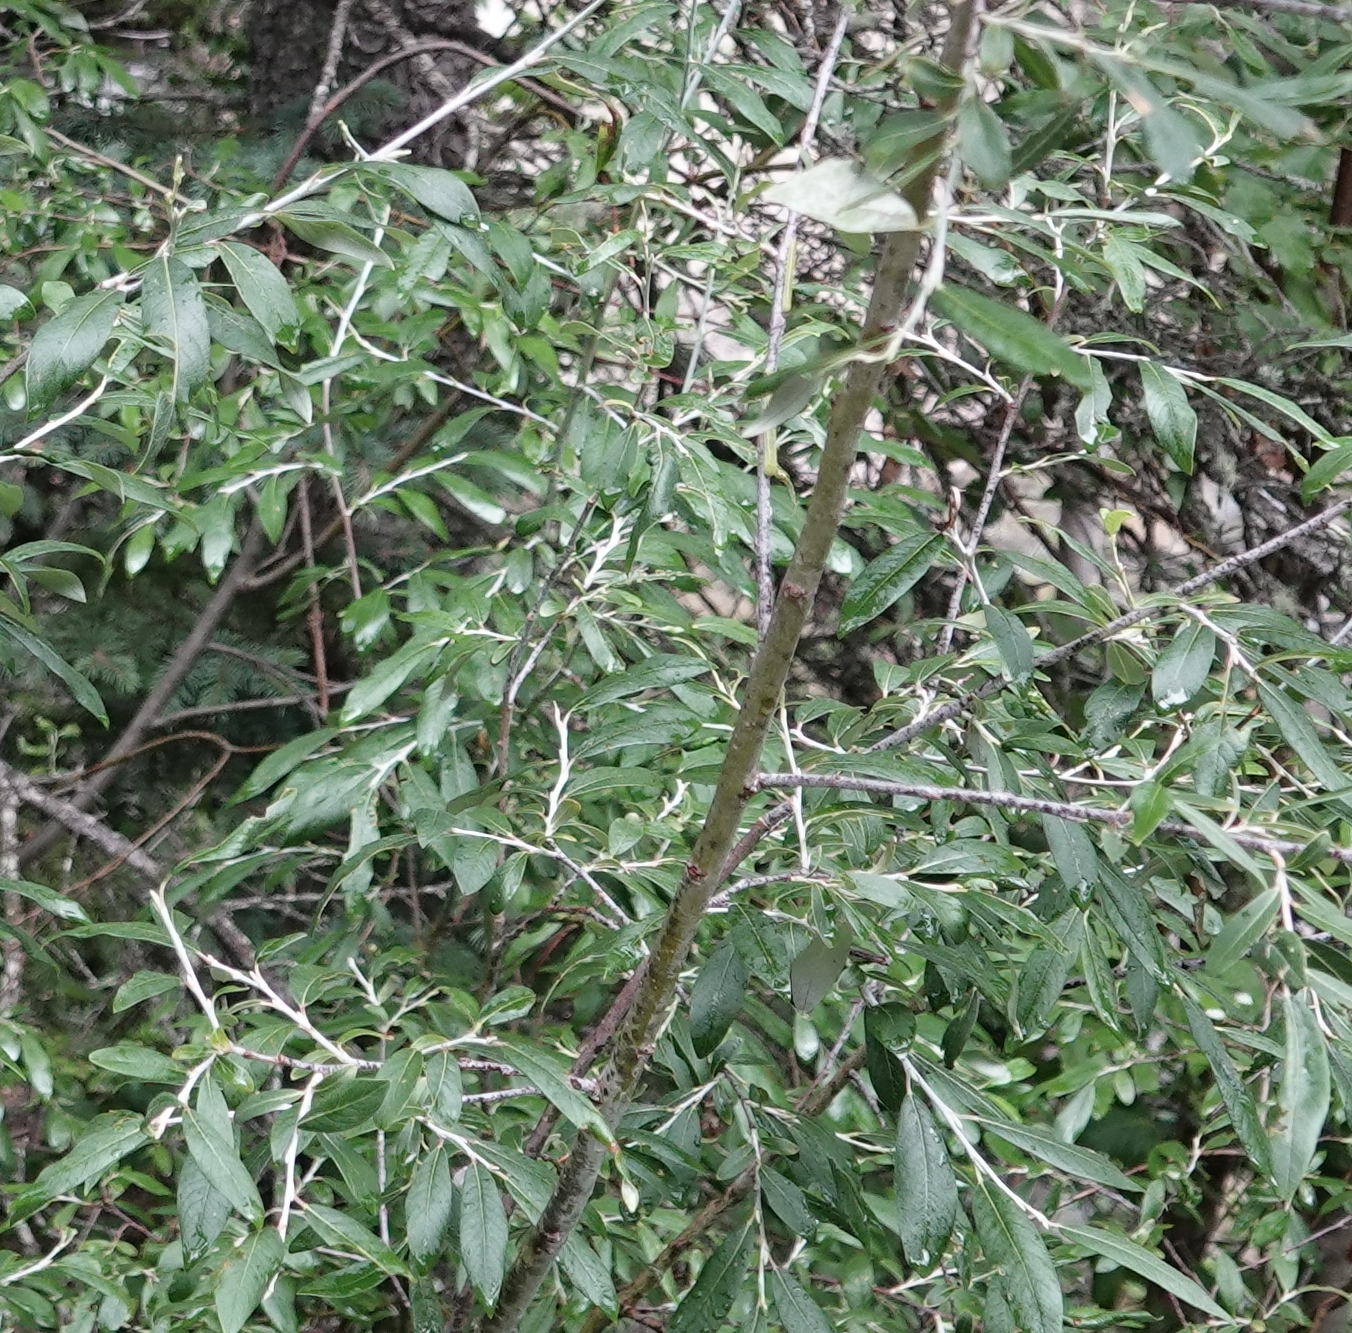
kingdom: Plantae
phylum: Tracheophyta
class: Magnoliopsida
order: Malpighiales
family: Salicaceae
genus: Salix
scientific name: Salix drummondiana
